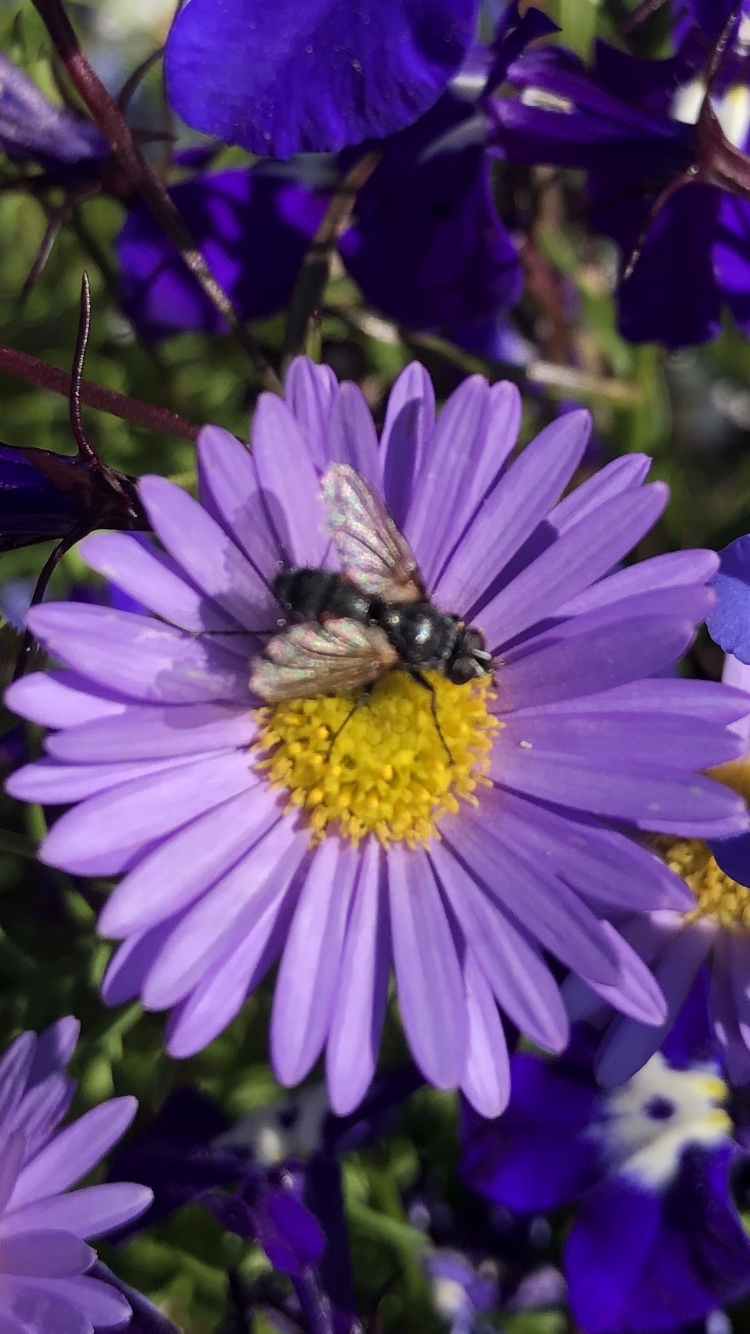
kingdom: Animalia
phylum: Arthropoda
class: Insecta
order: Diptera
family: Tachinidae
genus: Eriothrix
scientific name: Eriothrix rufomaculatus
